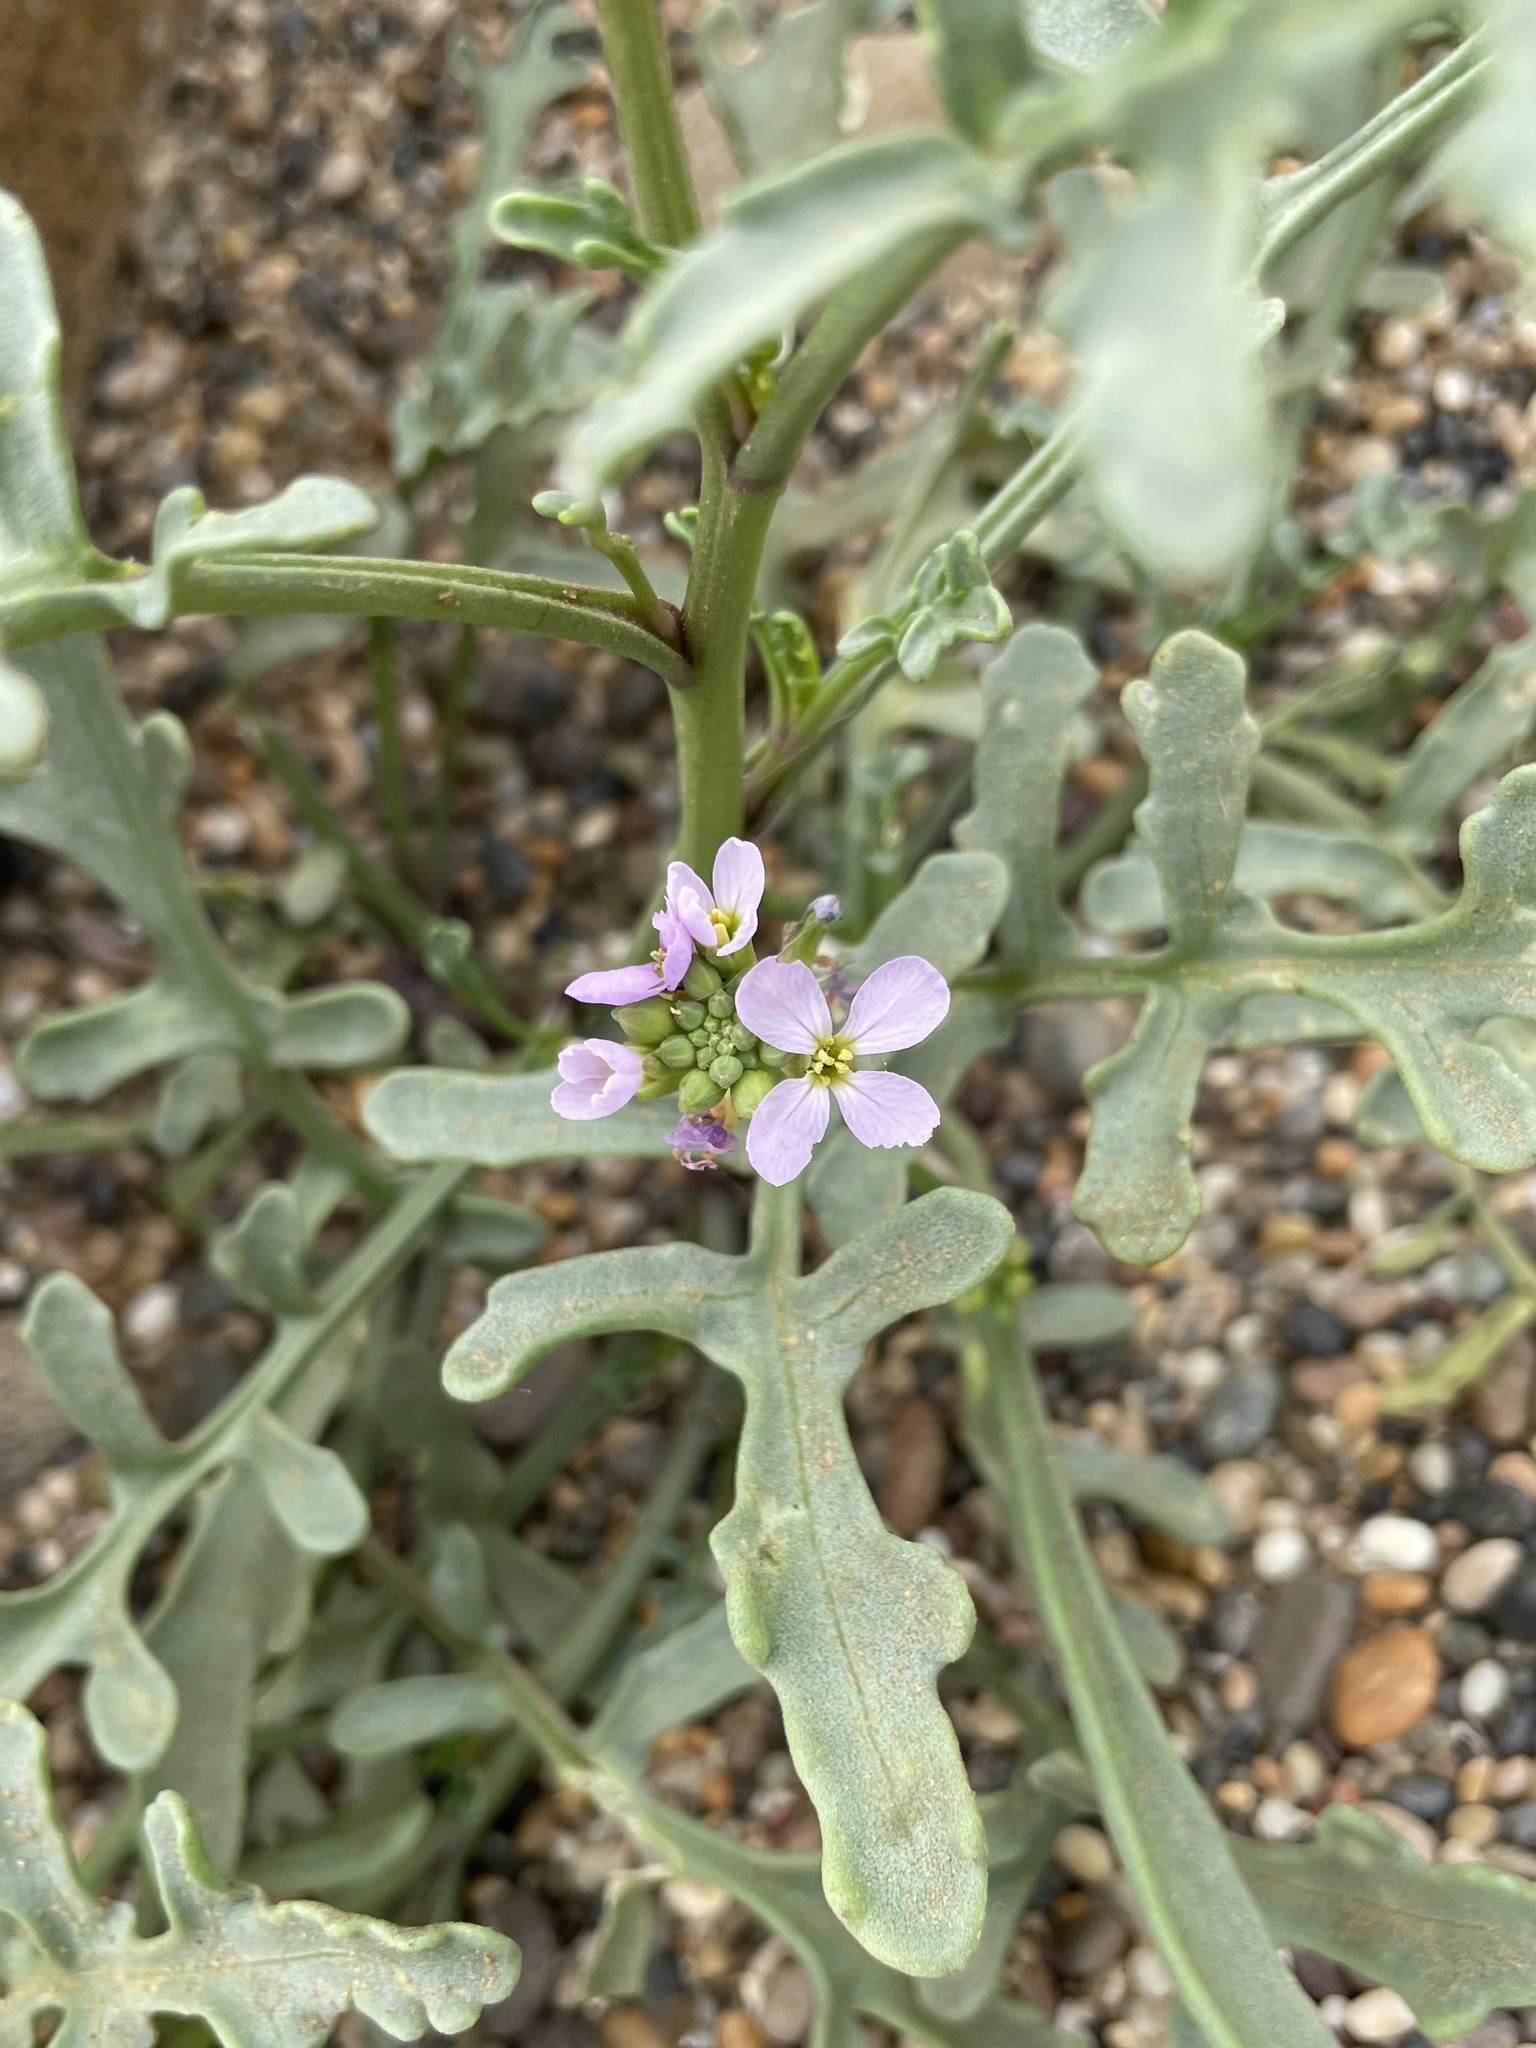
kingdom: Plantae
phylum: Tracheophyta
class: Magnoliopsida
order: Brassicales
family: Brassicaceae
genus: Cakile
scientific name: Cakile maritima
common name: Sea rocket
